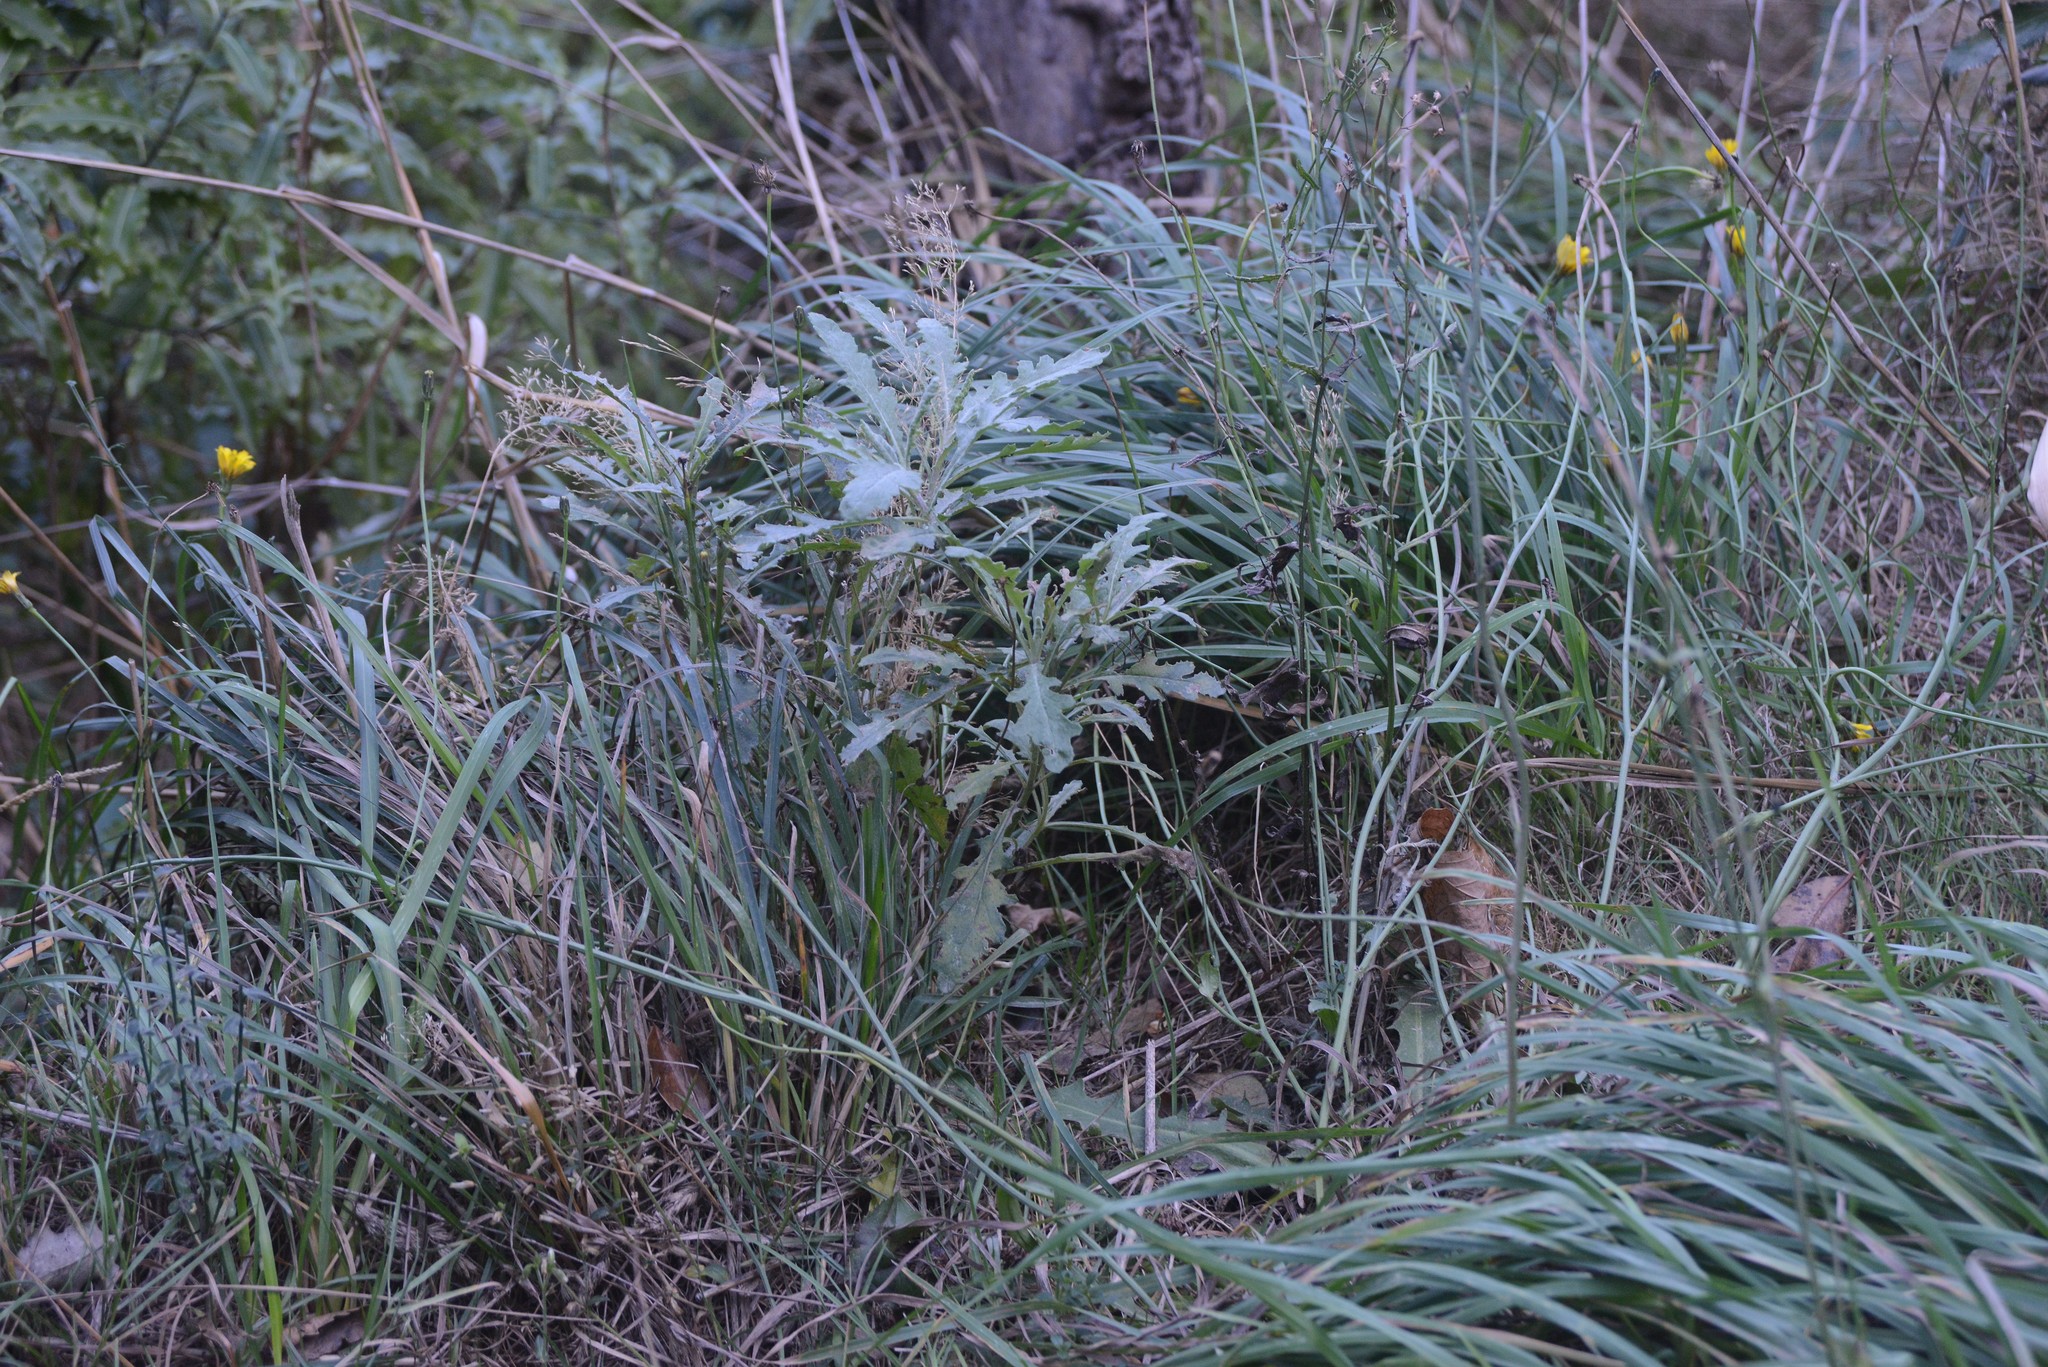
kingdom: Plantae
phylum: Tracheophyta
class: Magnoliopsida
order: Asterales
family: Asteraceae
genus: Senecio
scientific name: Senecio glomeratus
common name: Cutleaf burnweed
